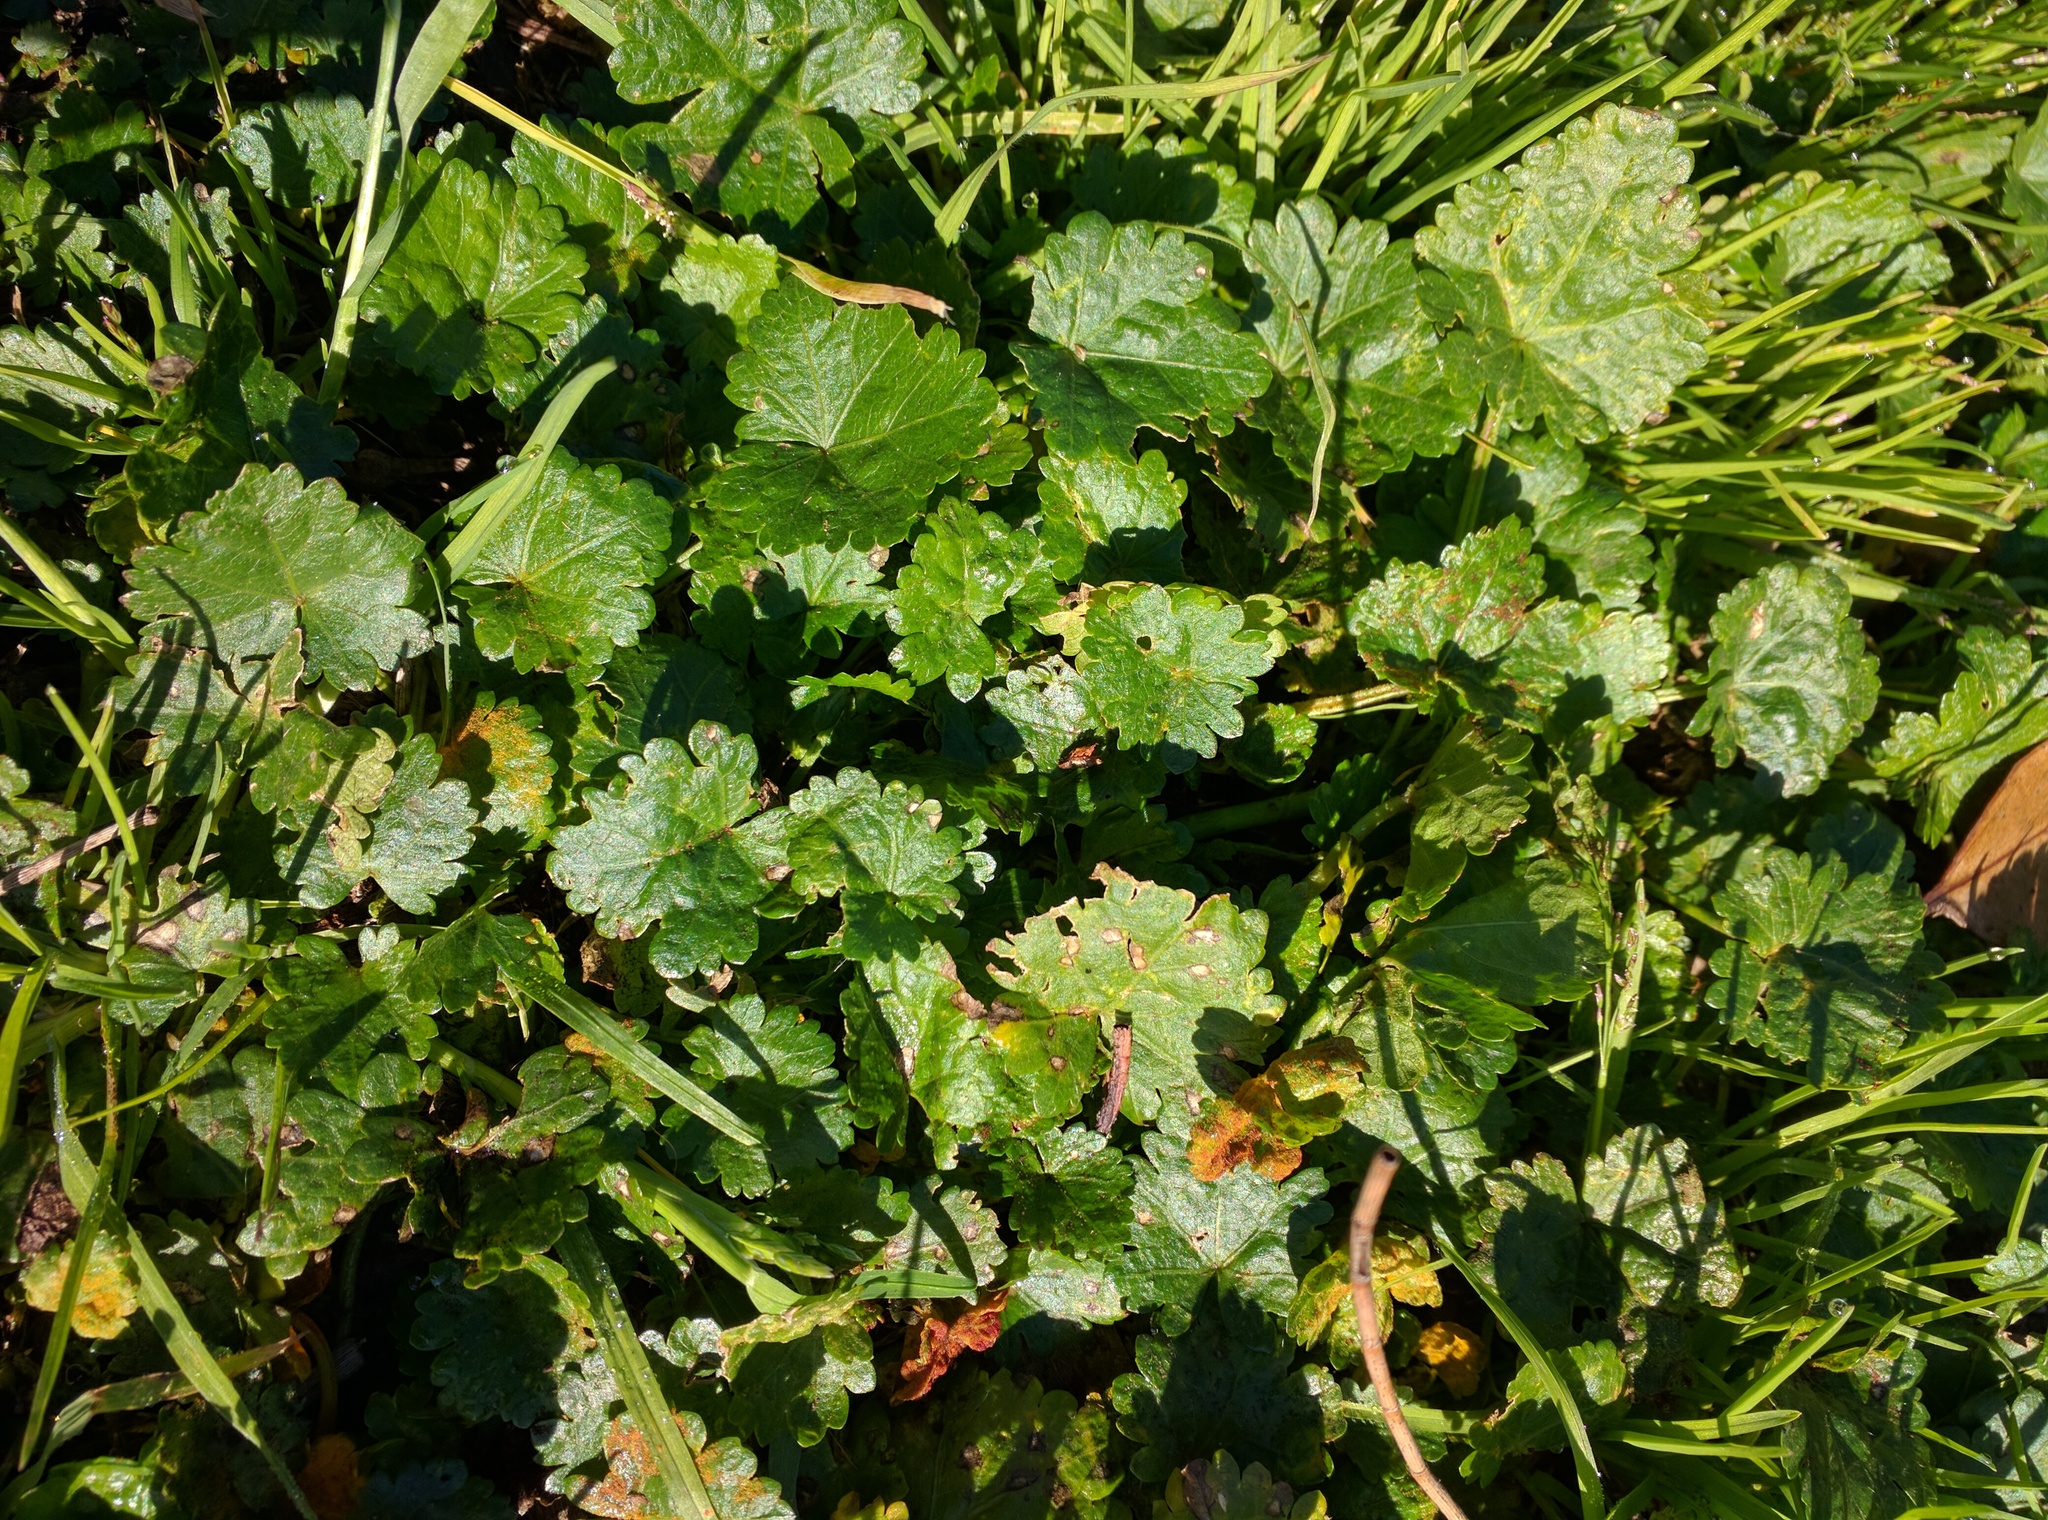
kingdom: Plantae
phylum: Tracheophyta
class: Magnoliopsida
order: Malvales
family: Malvaceae
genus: Modiola
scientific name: Modiola caroliniana
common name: Carolina bristlemallow
